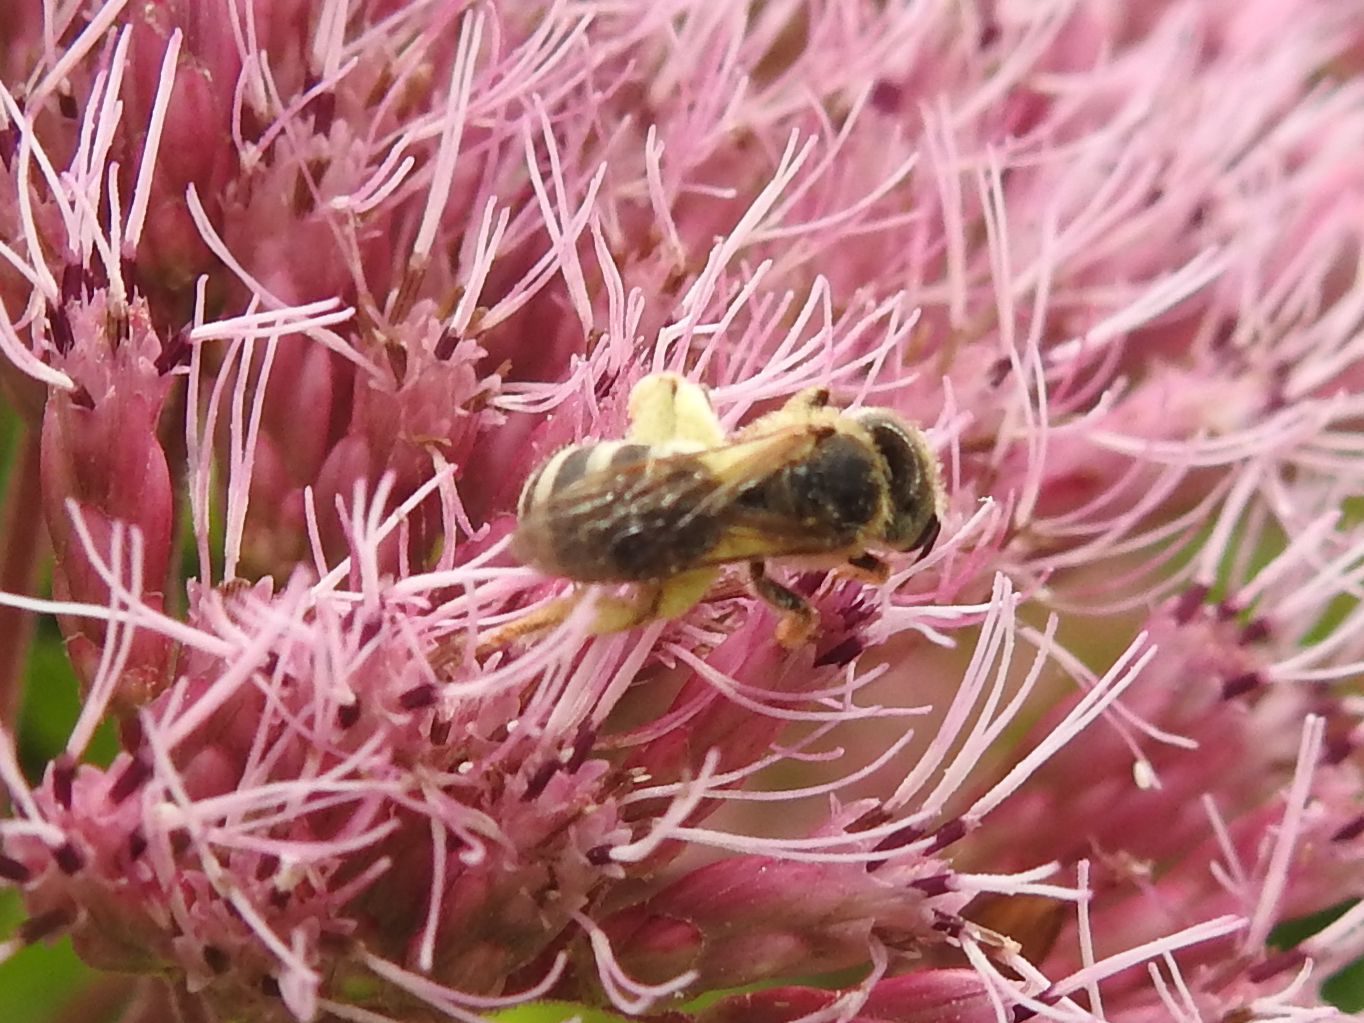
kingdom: Animalia
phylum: Arthropoda
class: Insecta
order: Hymenoptera
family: Halictidae
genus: Halictus
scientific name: Halictus ligatus
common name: Ligated furrow bee
